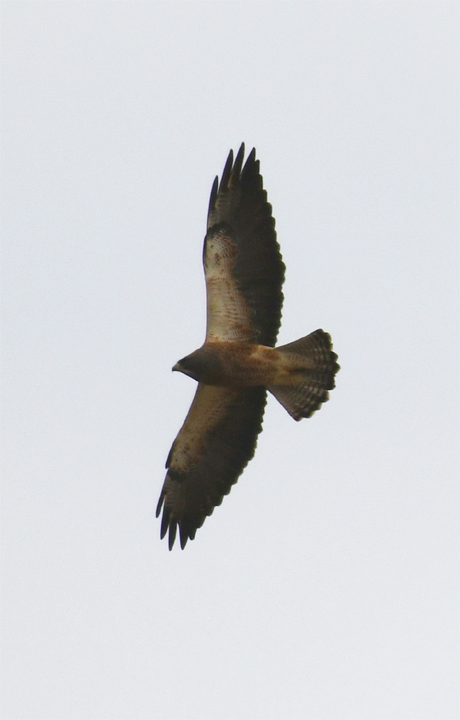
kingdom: Animalia
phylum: Chordata
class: Aves
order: Accipitriformes
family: Accipitridae
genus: Buteo
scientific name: Buteo swainsoni
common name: Swainson's hawk
